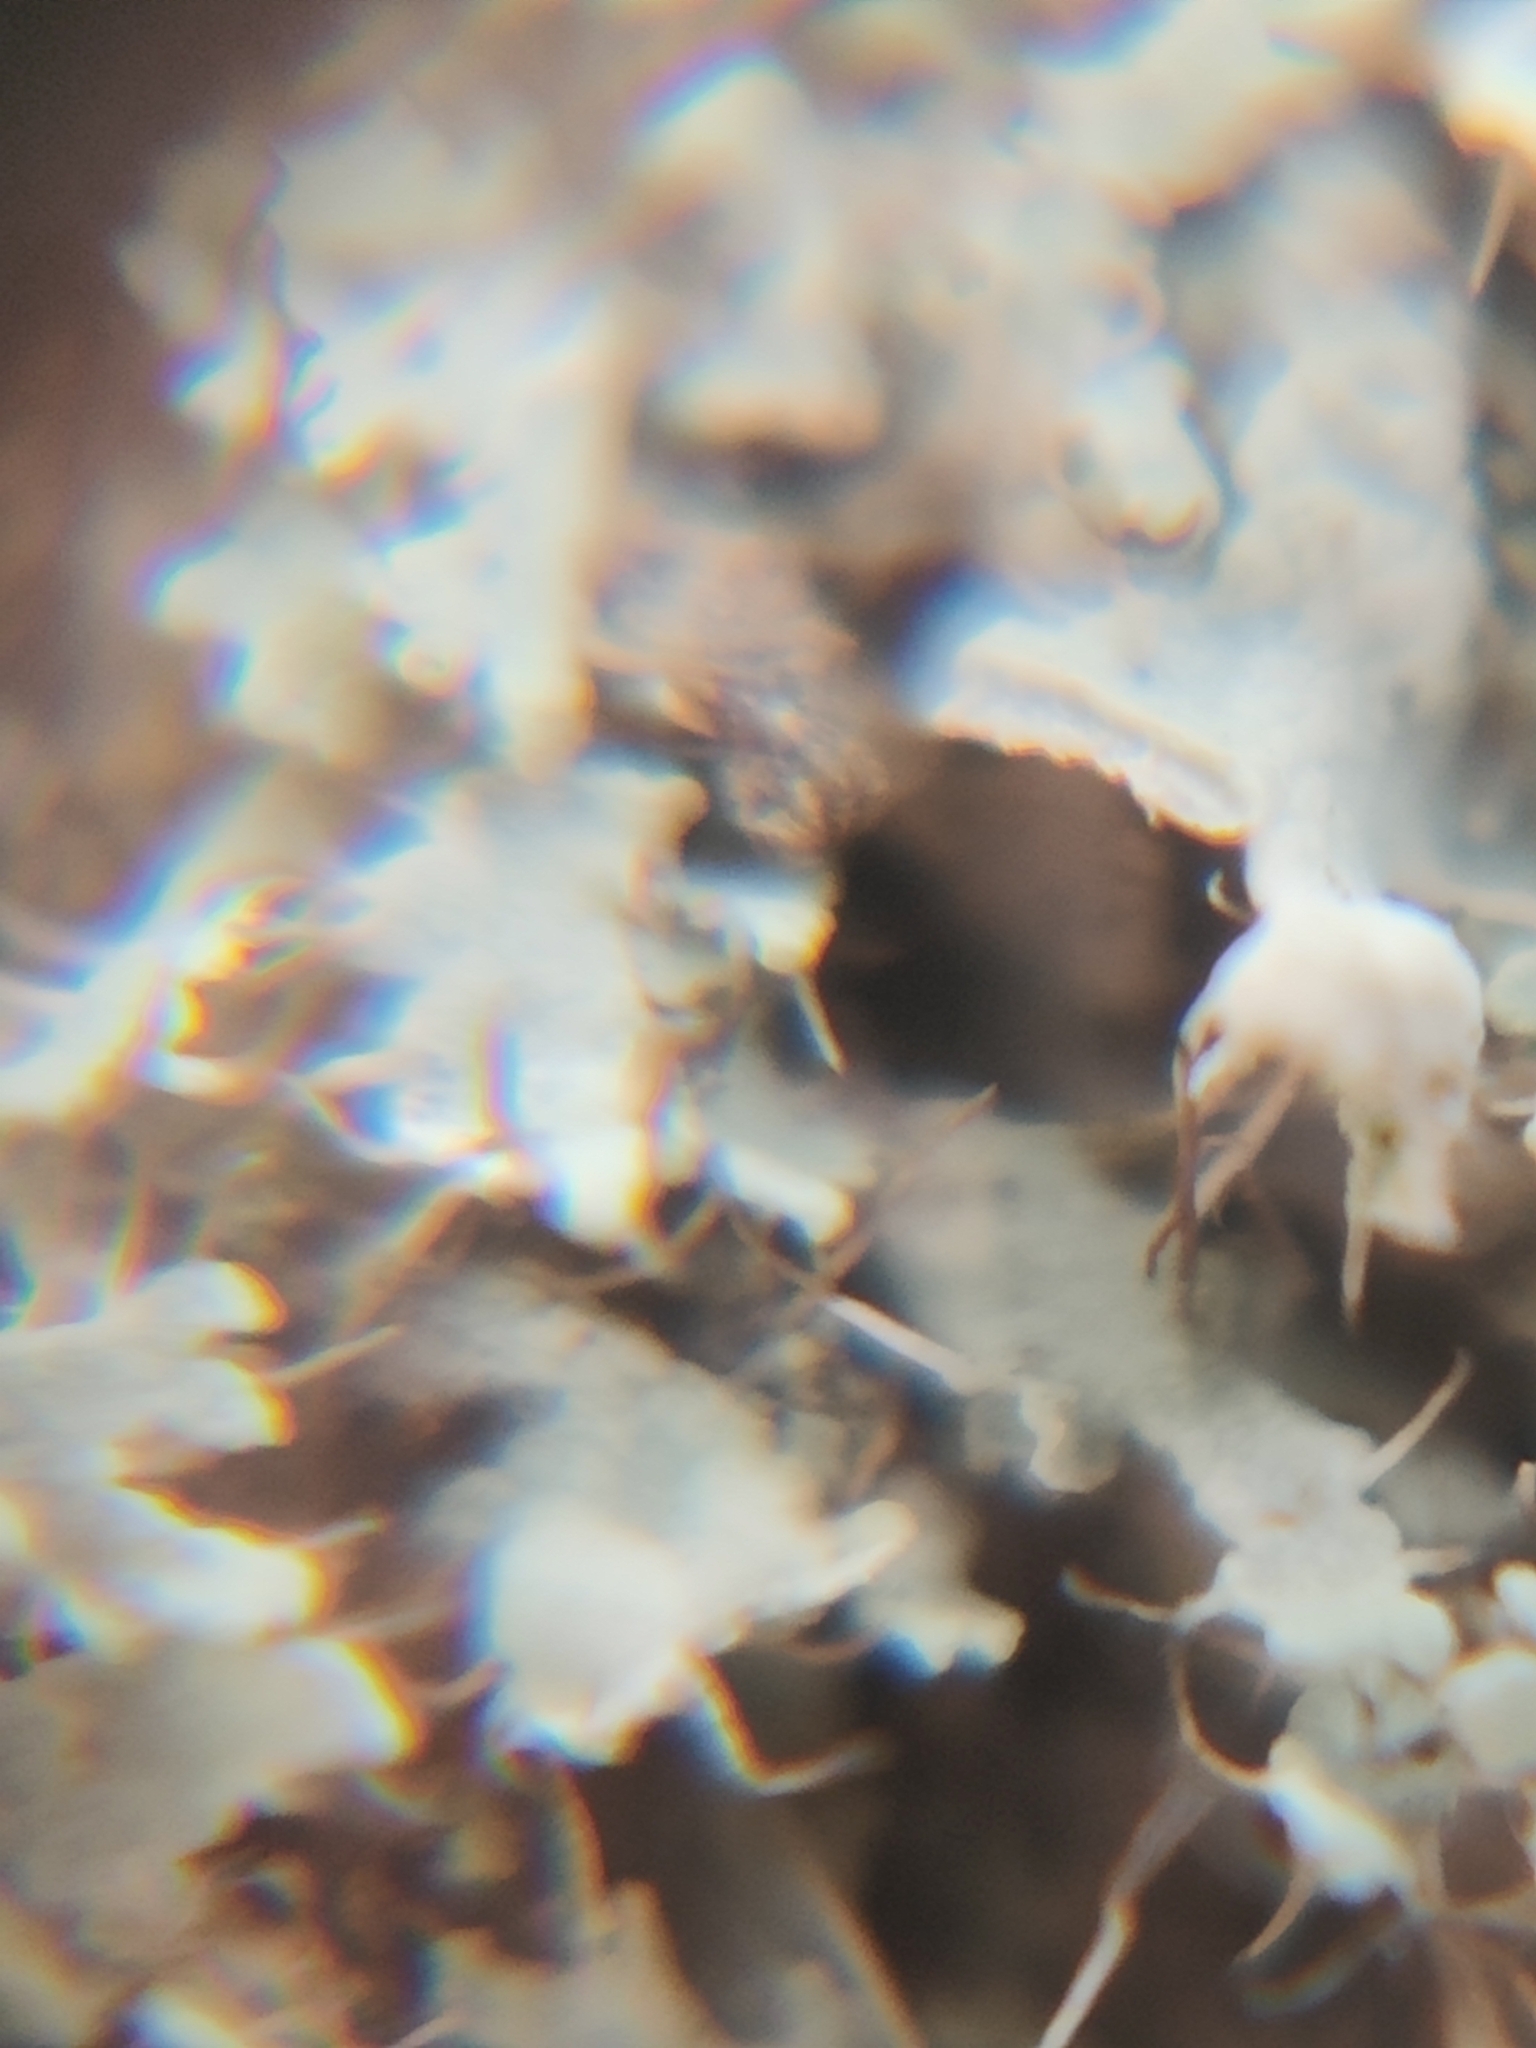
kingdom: Fungi
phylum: Ascomycota
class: Lecanoromycetes
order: Caliciales
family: Physciaceae
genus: Physcia
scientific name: Physcia adscendens
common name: Hooded rosette lichen
